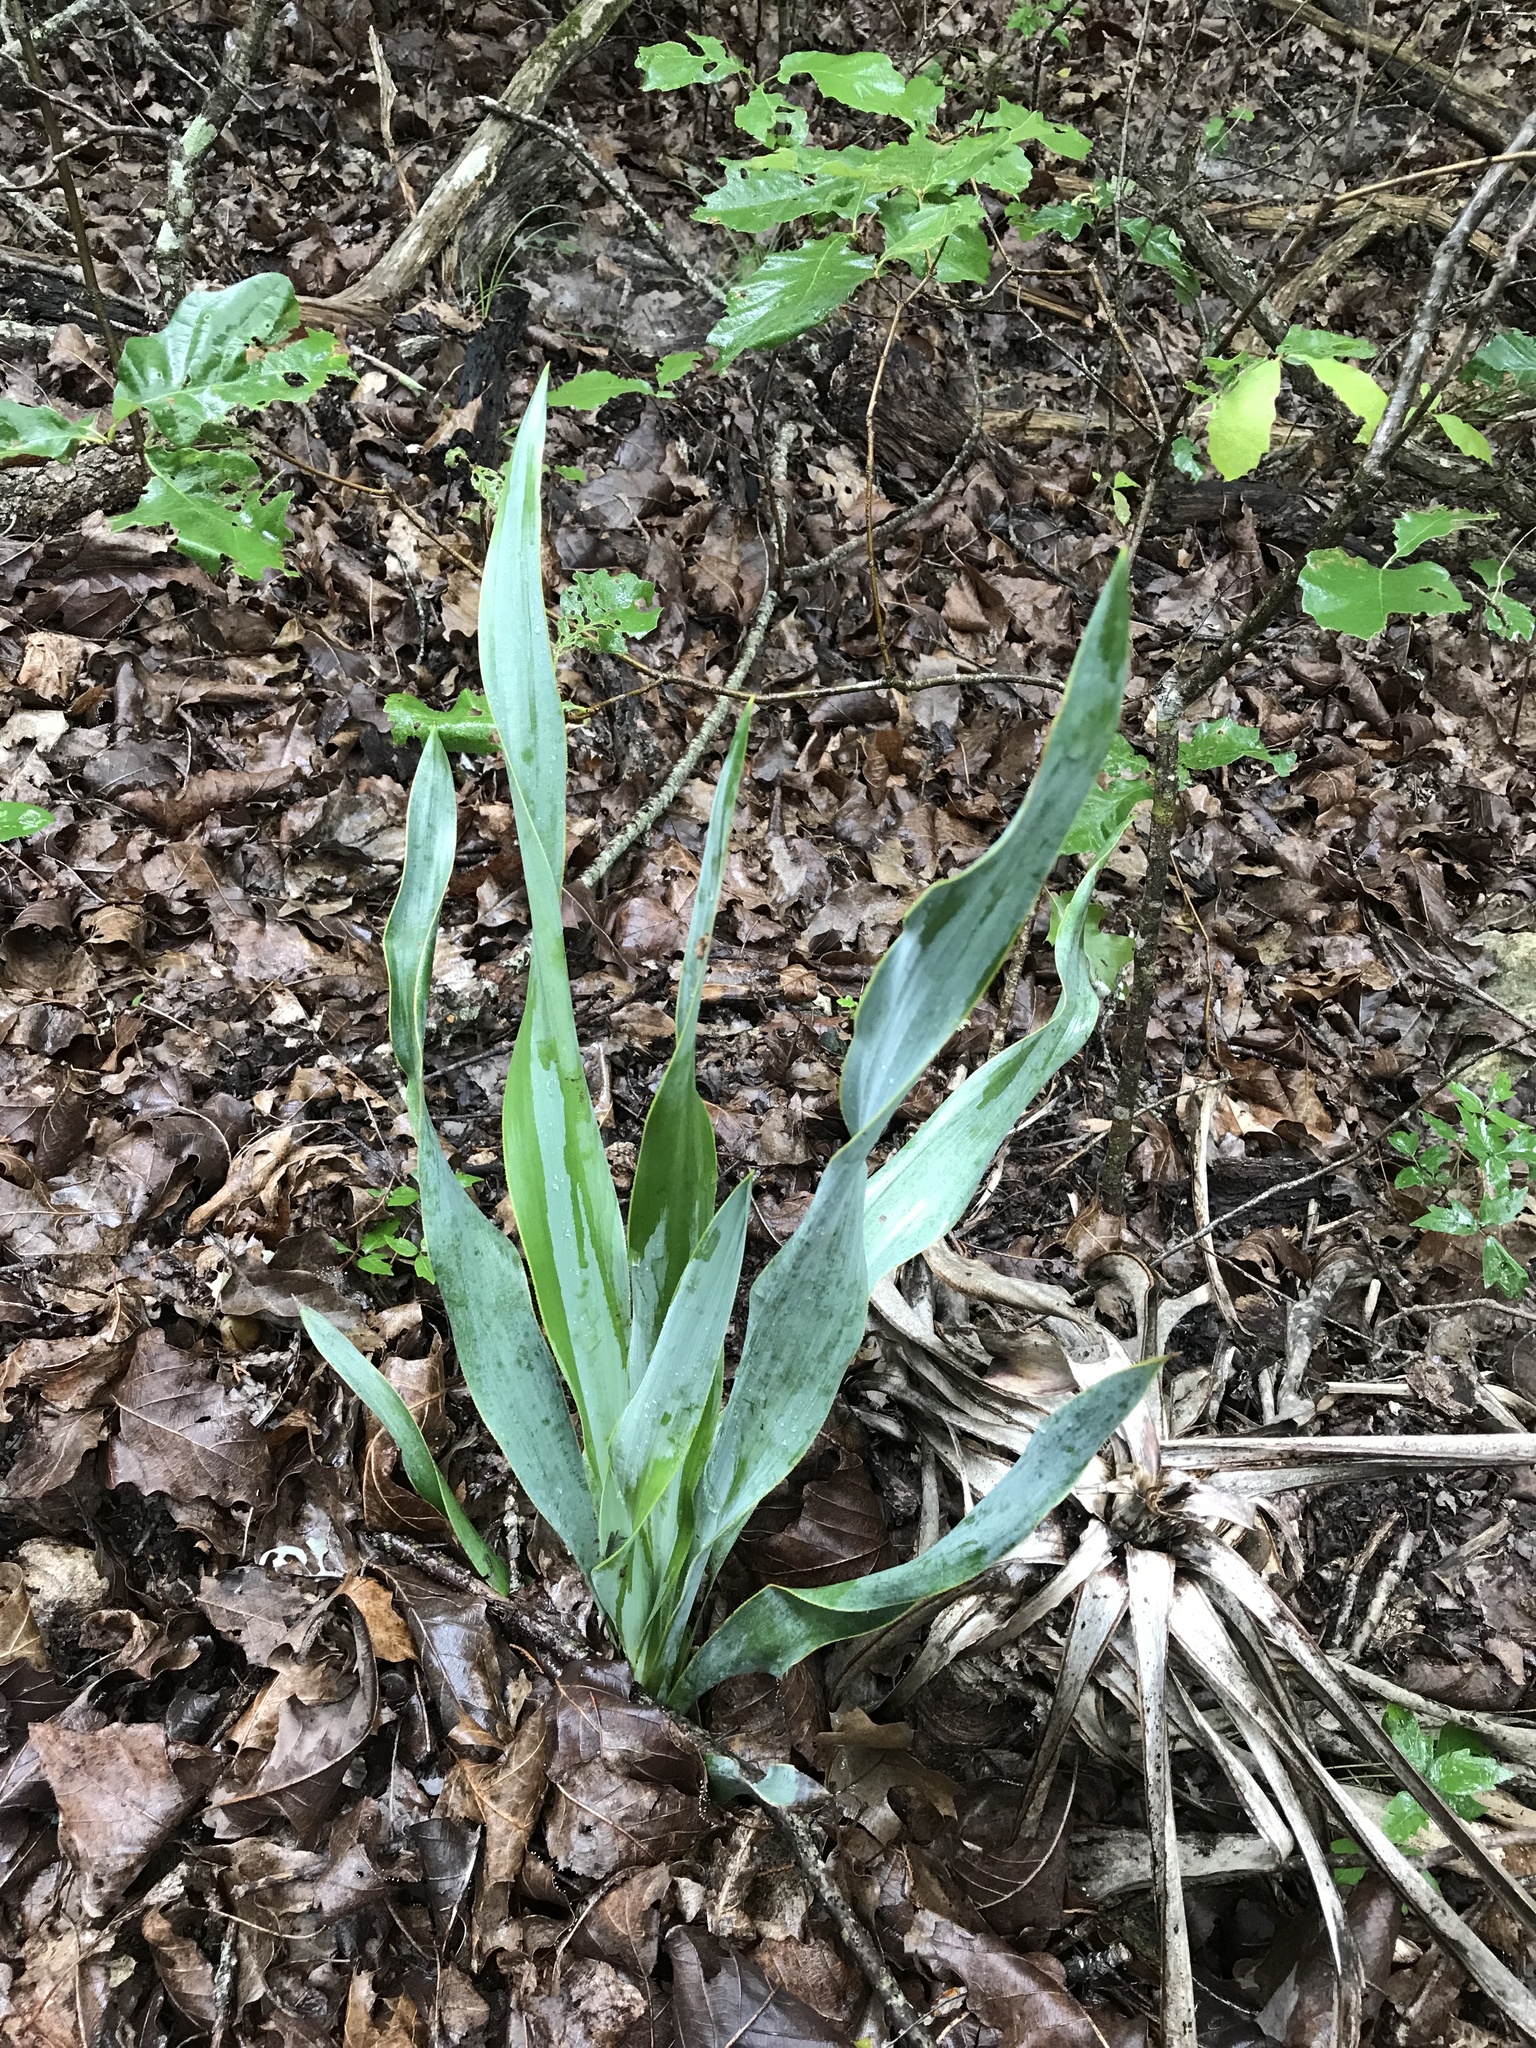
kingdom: Plantae
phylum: Tracheophyta
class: Liliopsida
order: Asparagales
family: Asparagaceae
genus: Yucca
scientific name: Yucca rupicola
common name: Twisted-leaf spanish-dagger
